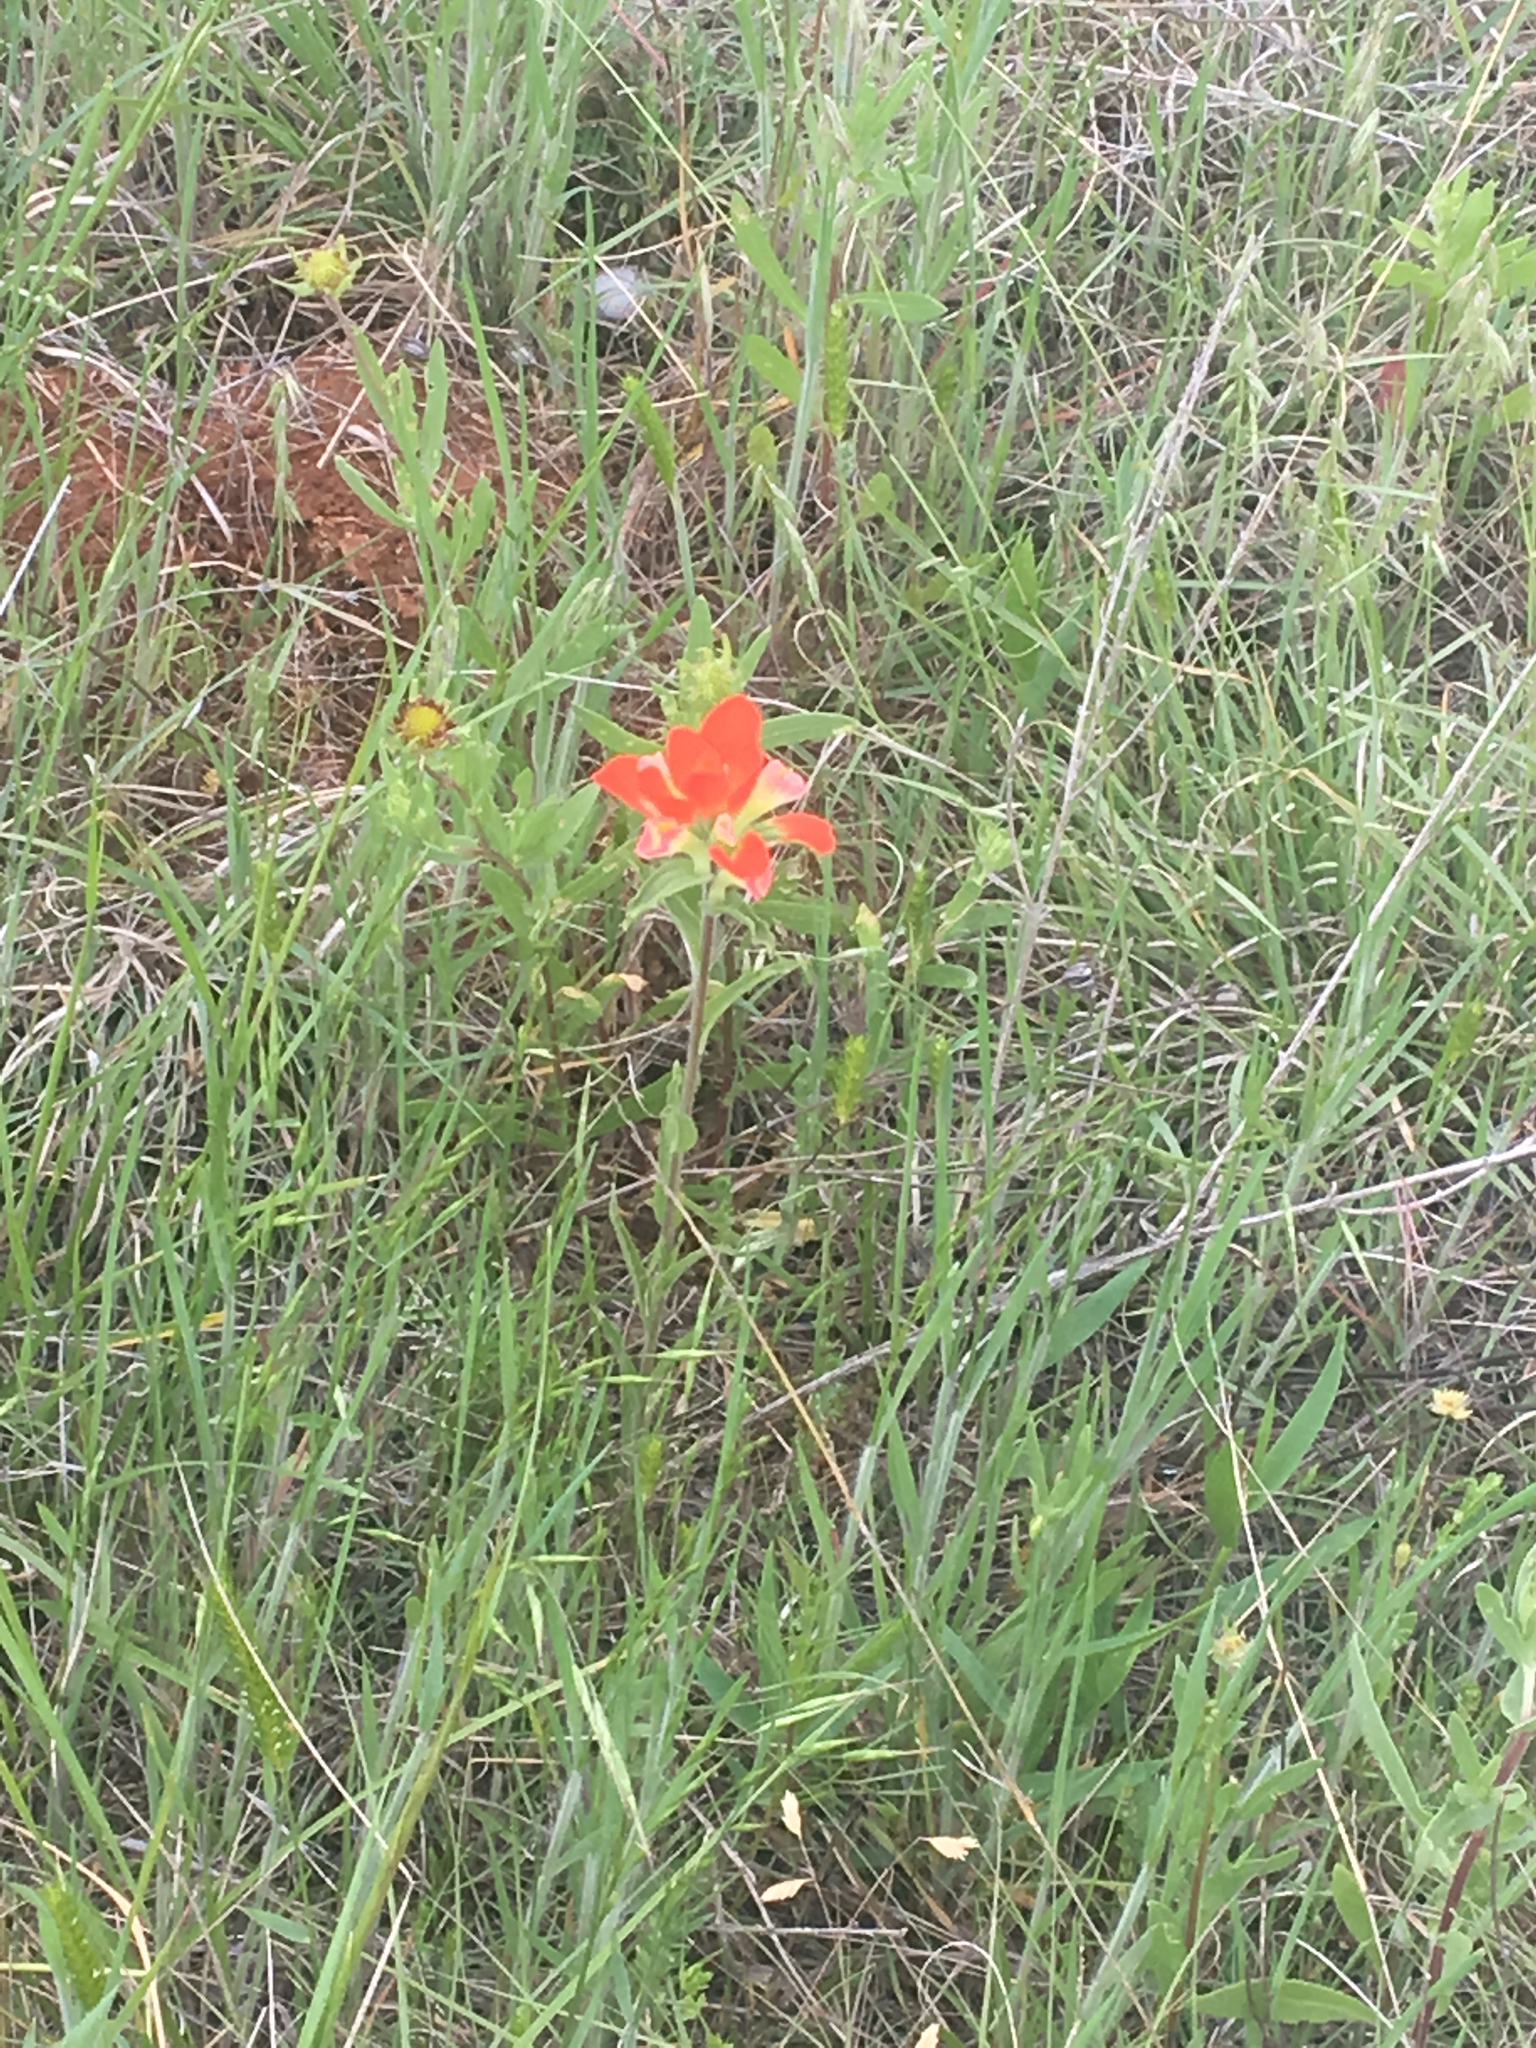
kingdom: Plantae
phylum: Tracheophyta
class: Magnoliopsida
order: Lamiales
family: Orobanchaceae
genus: Castilleja
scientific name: Castilleja indivisa
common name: Texas paintbrush
